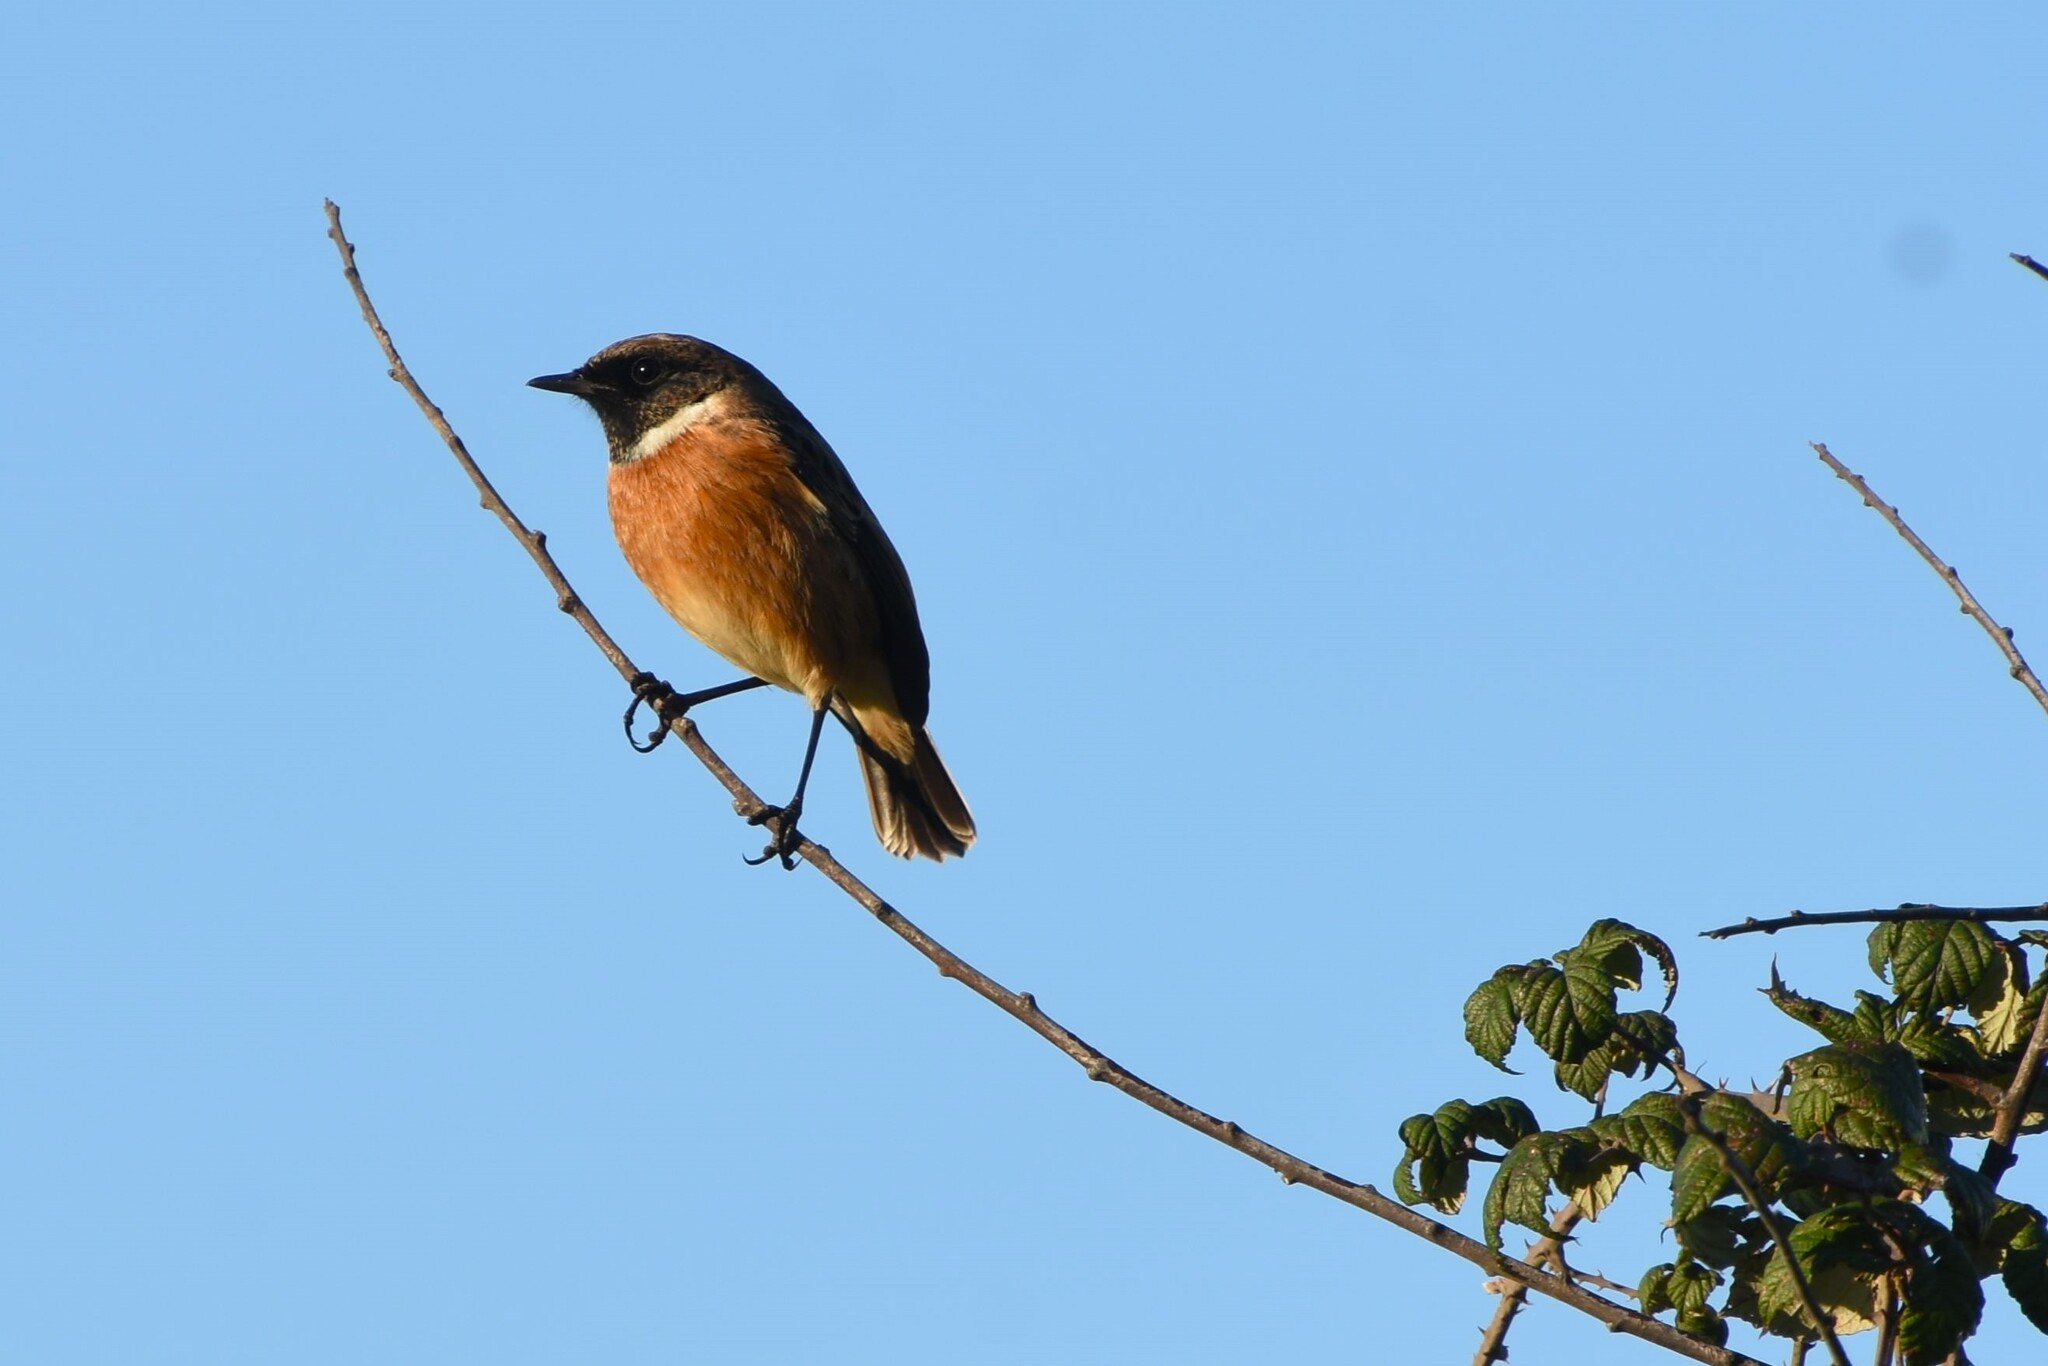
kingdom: Animalia
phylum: Chordata
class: Aves
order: Passeriformes
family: Muscicapidae
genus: Saxicola
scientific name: Saxicola rubicola
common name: European stonechat
